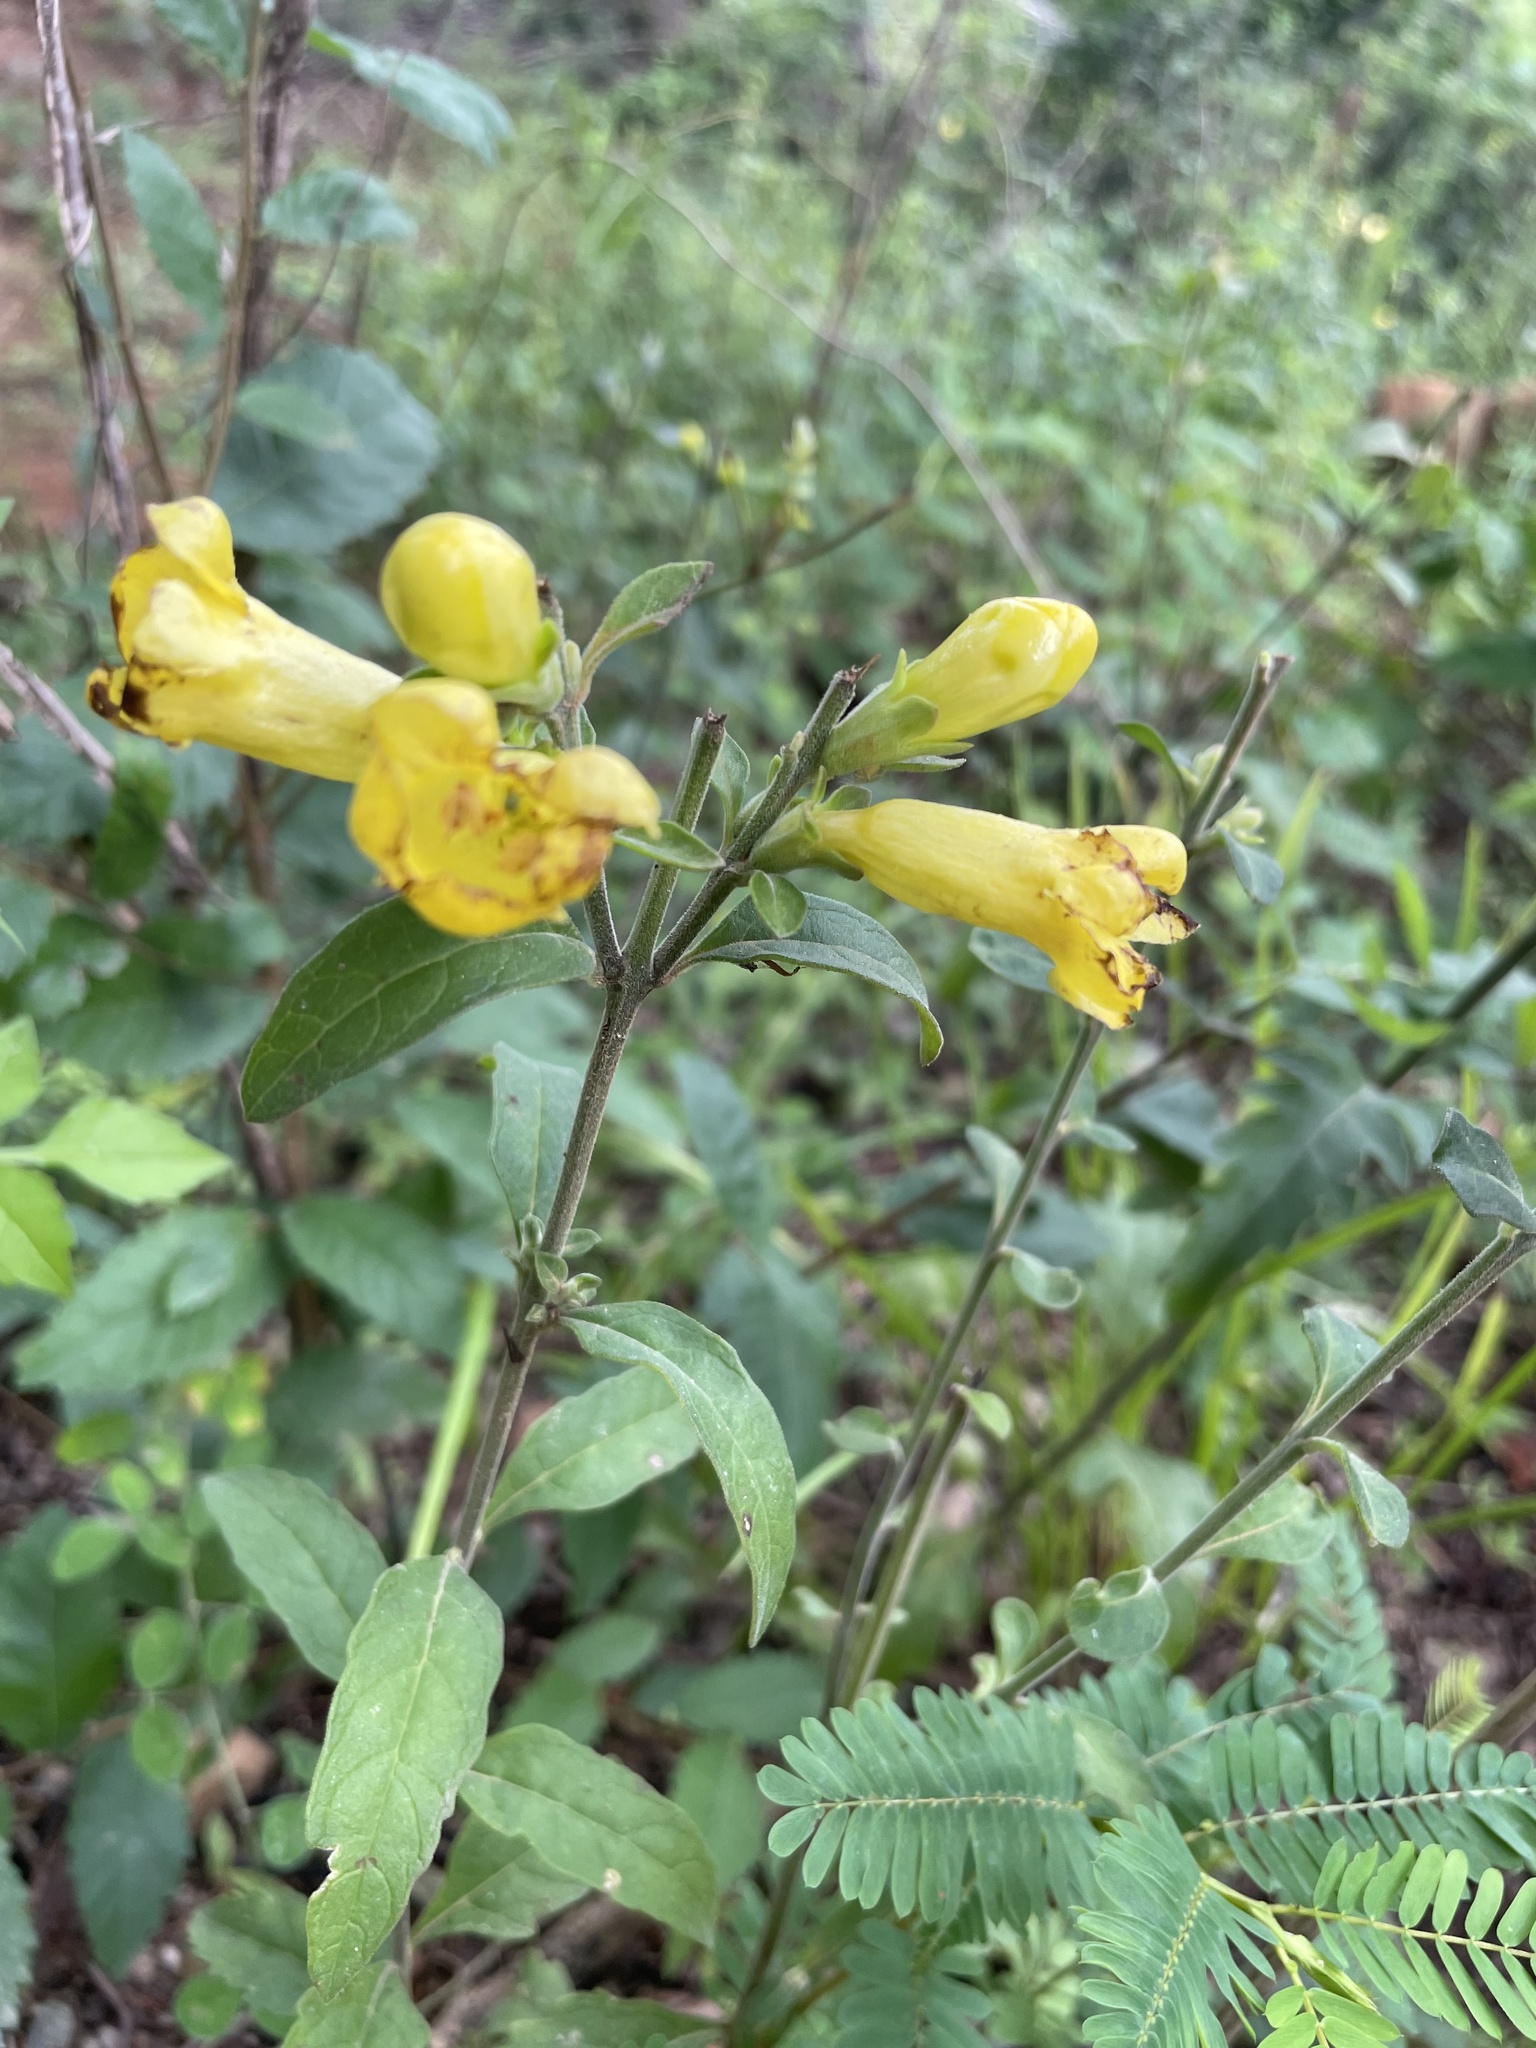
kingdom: Plantae
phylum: Tracheophyta
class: Magnoliopsida
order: Lamiales
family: Orobanchaceae
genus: Aureolaria
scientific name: Aureolaria virginica
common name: Downy false foxglove
